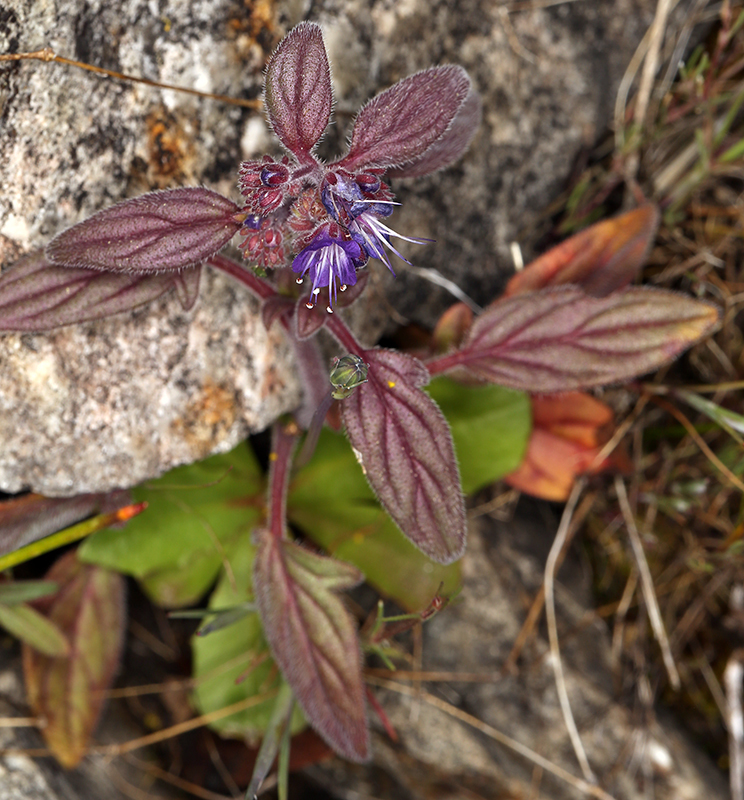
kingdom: Plantae
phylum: Tracheophyta
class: Magnoliopsida
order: Boraginales
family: Hydrophyllaceae
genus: Phacelia
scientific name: Phacelia marcescens
